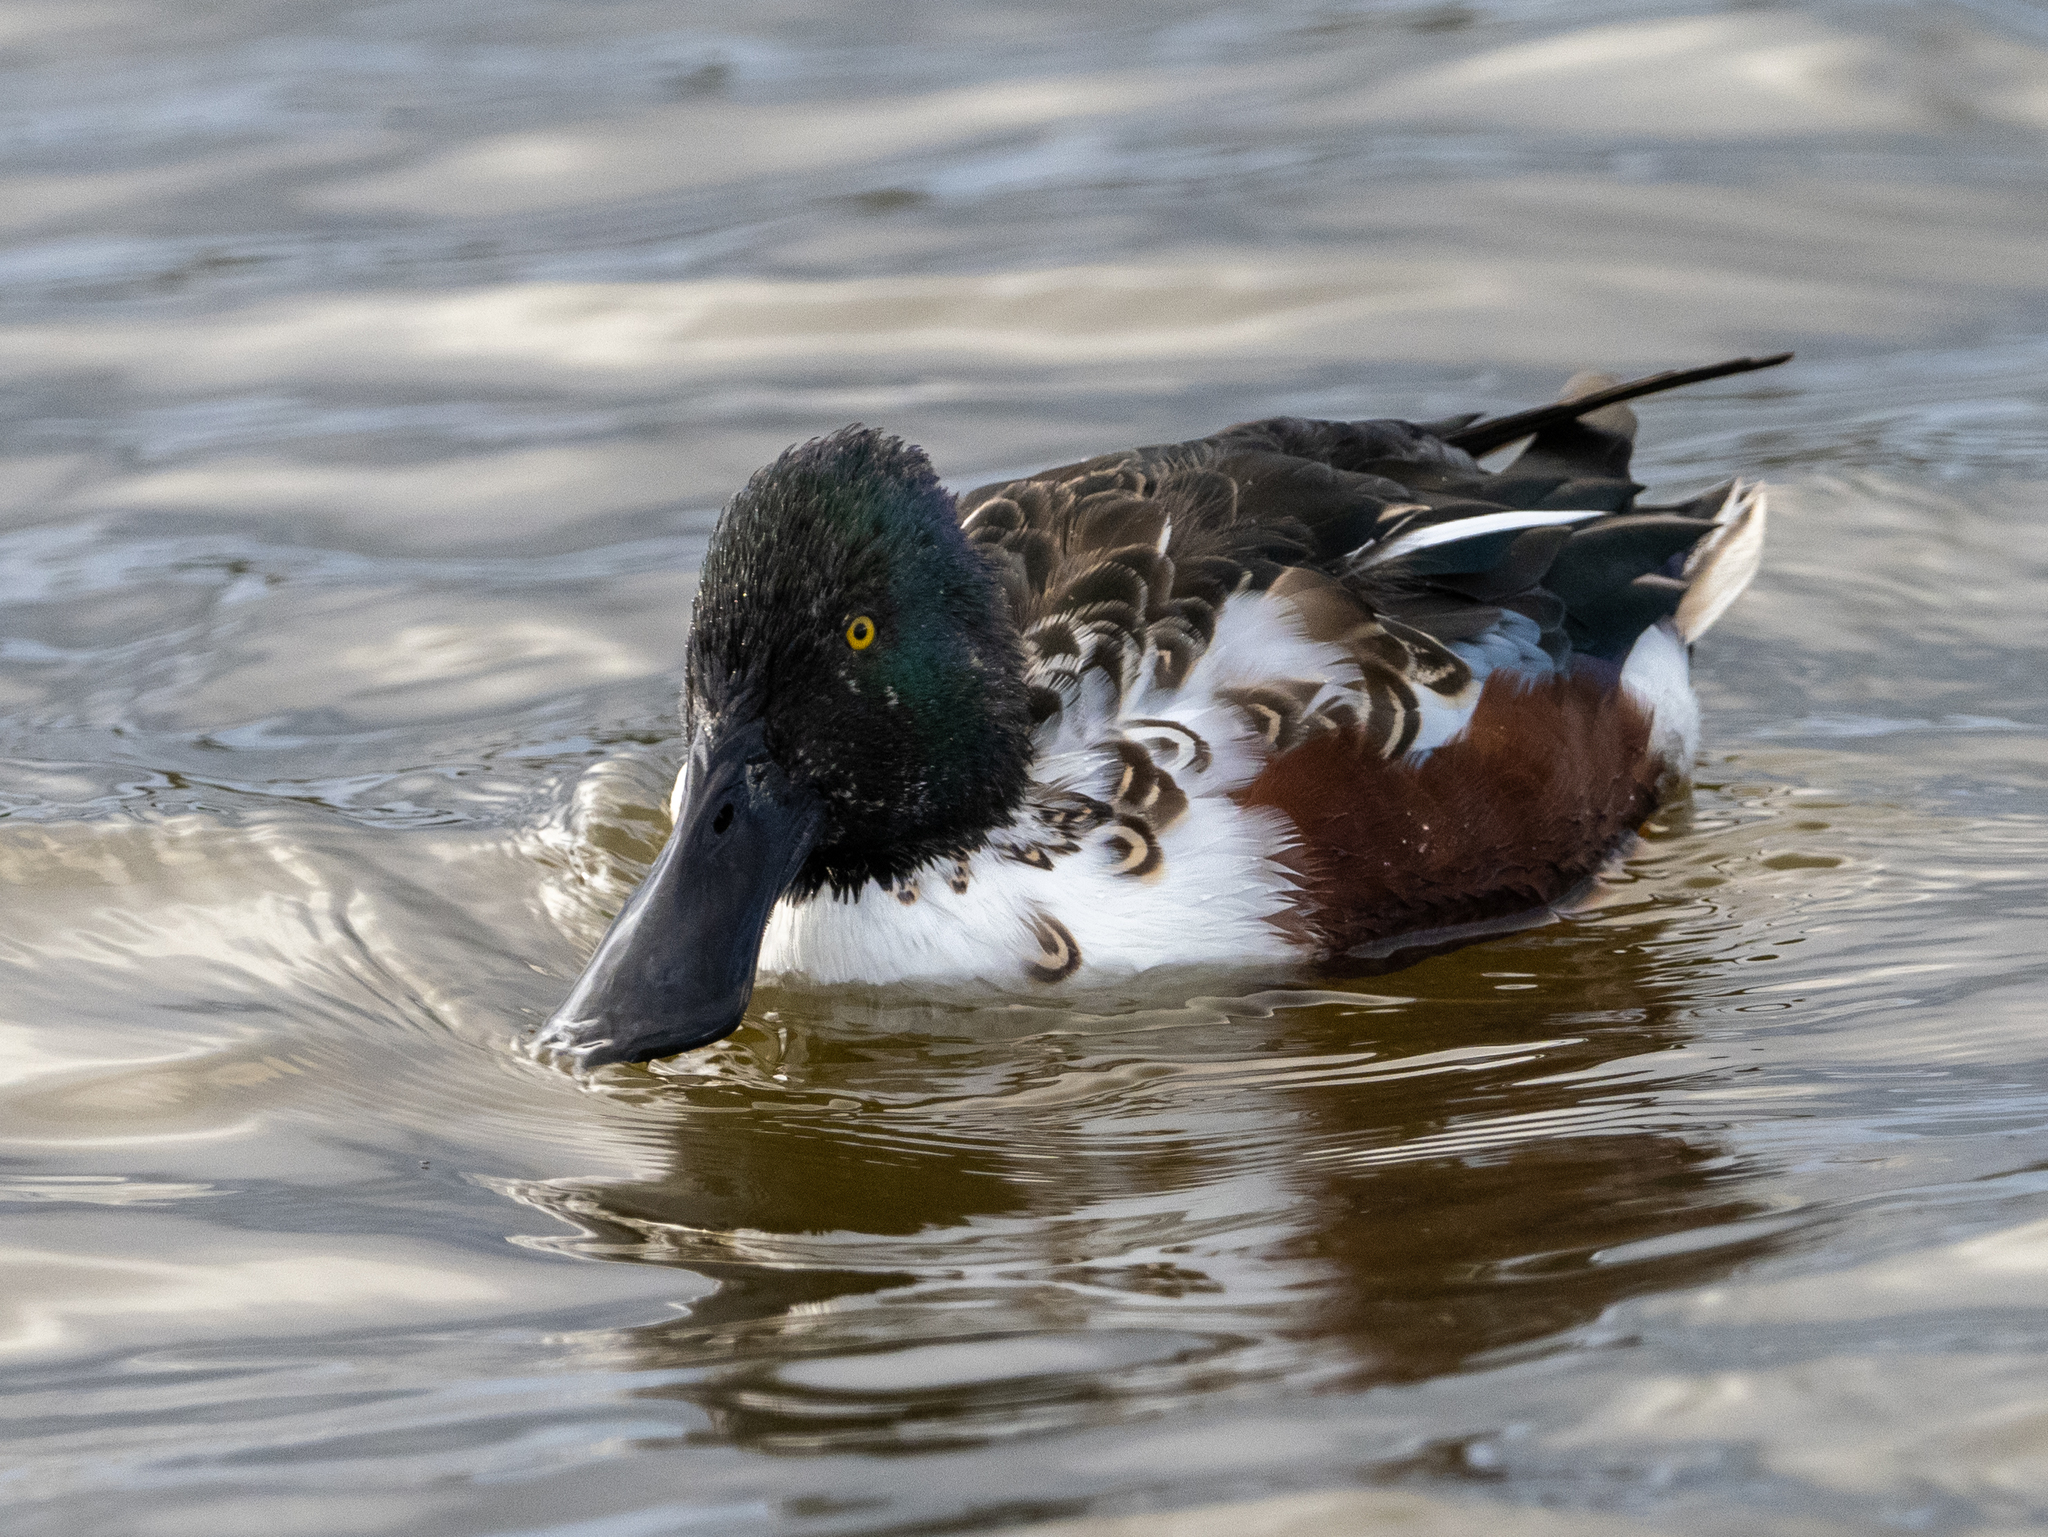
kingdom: Animalia
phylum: Chordata
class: Aves
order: Anseriformes
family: Anatidae
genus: Spatula
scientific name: Spatula clypeata
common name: Northern shoveler
